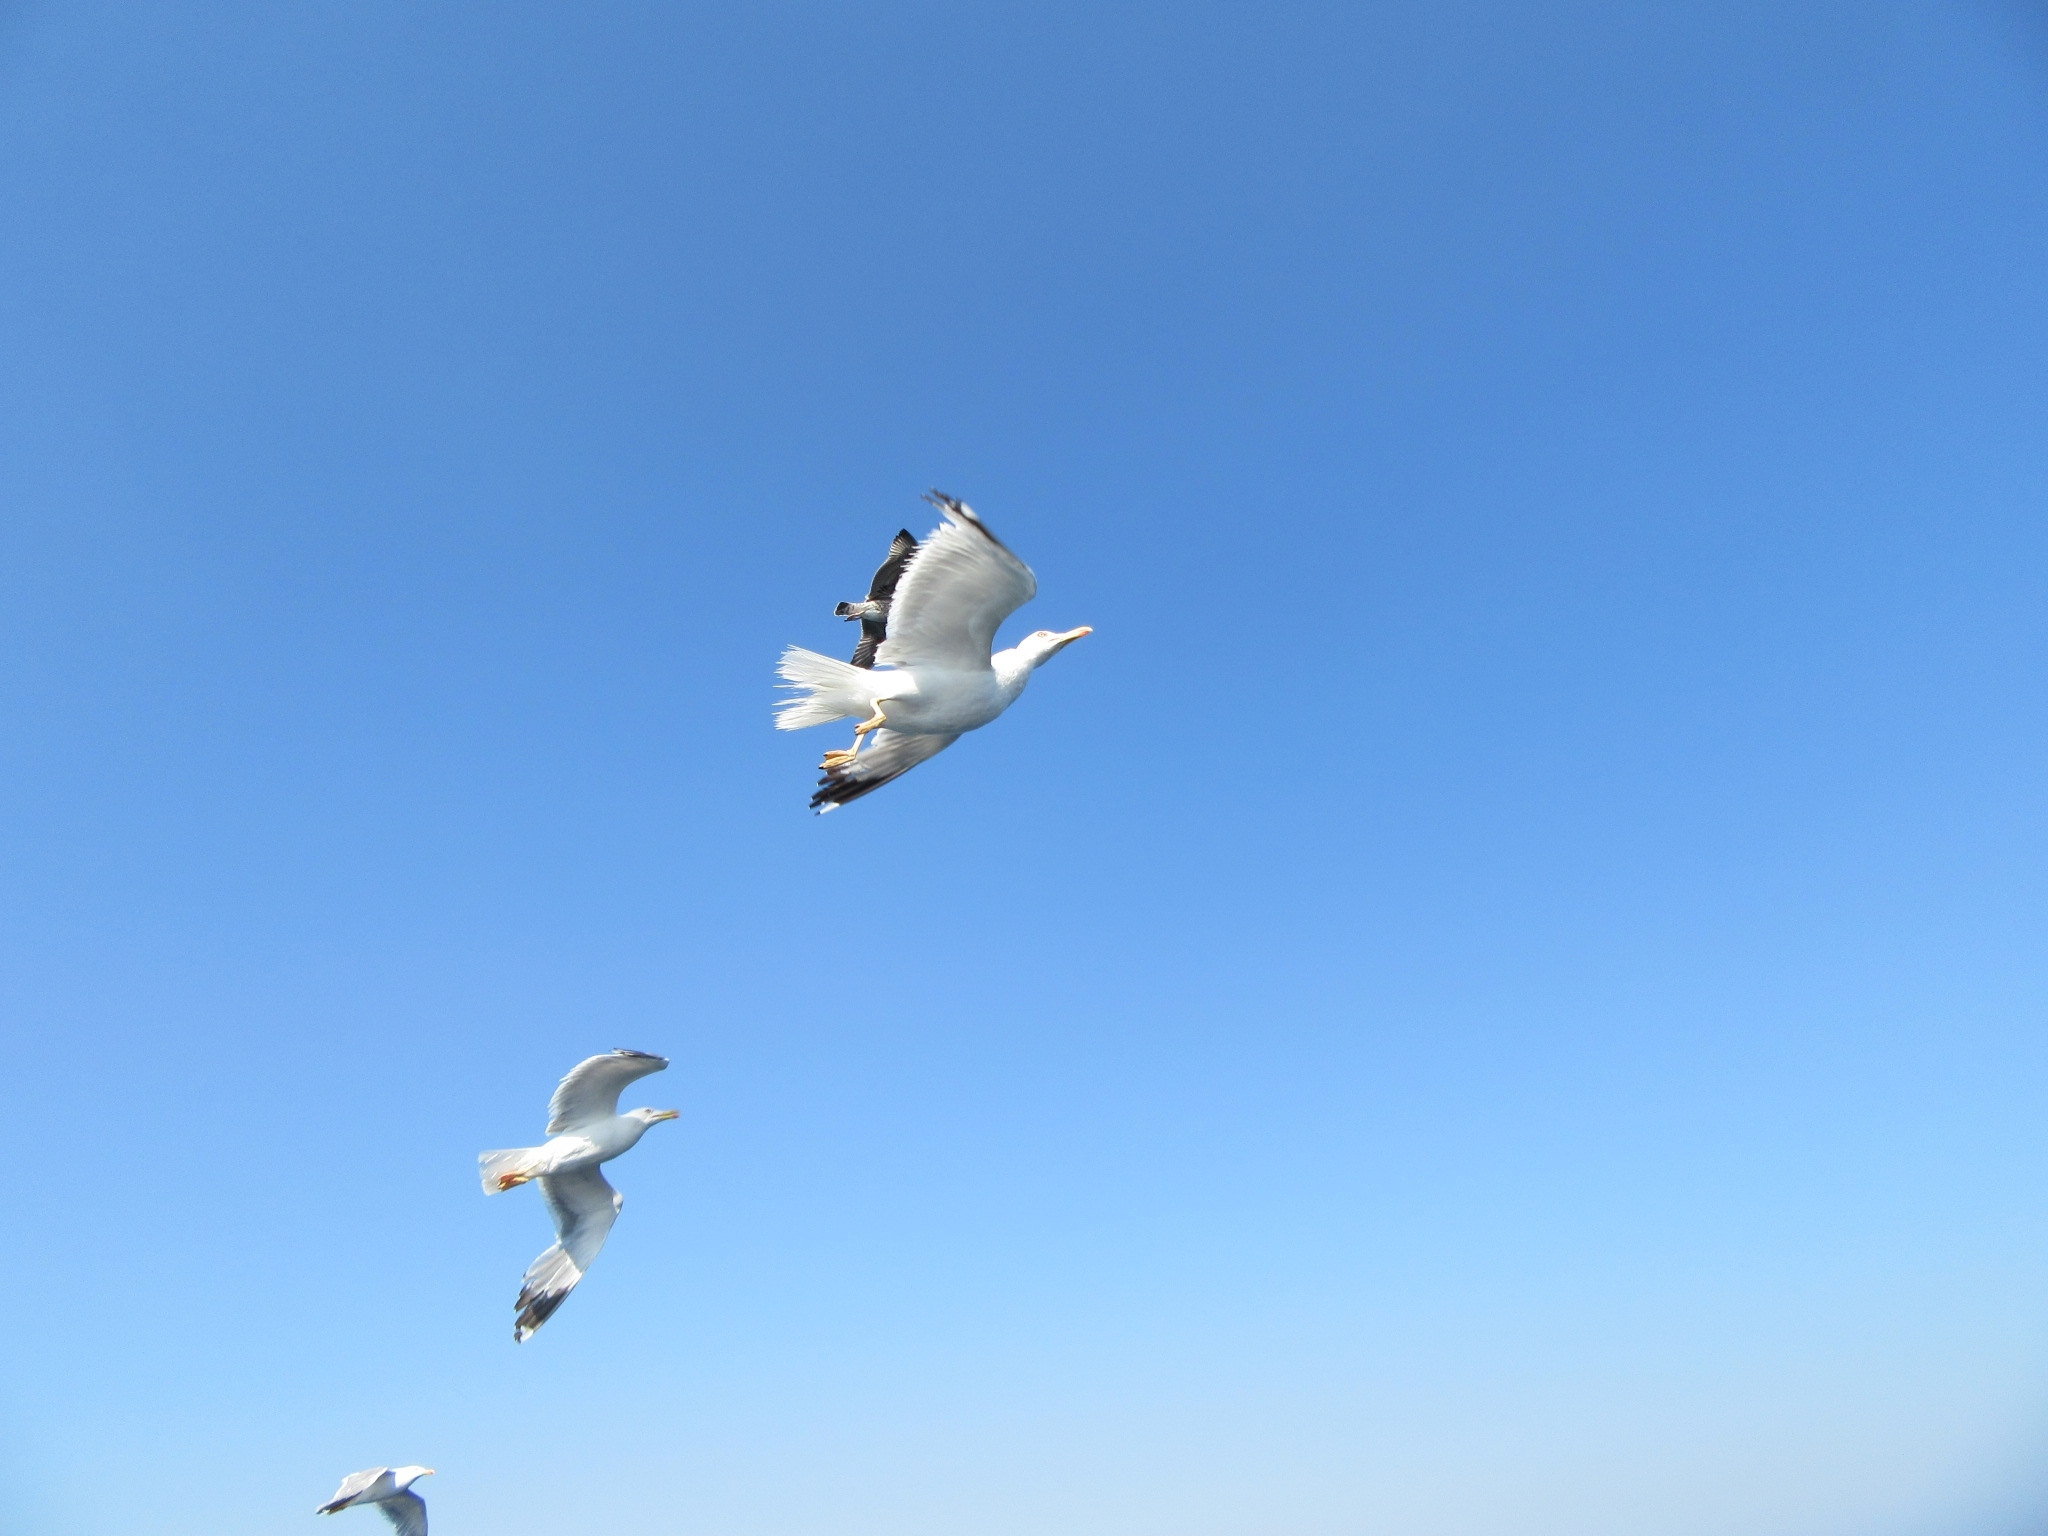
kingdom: Animalia
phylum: Chordata
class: Aves
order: Charadriiformes
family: Laridae
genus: Larus
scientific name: Larus michahellis
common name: Yellow-legged gull
